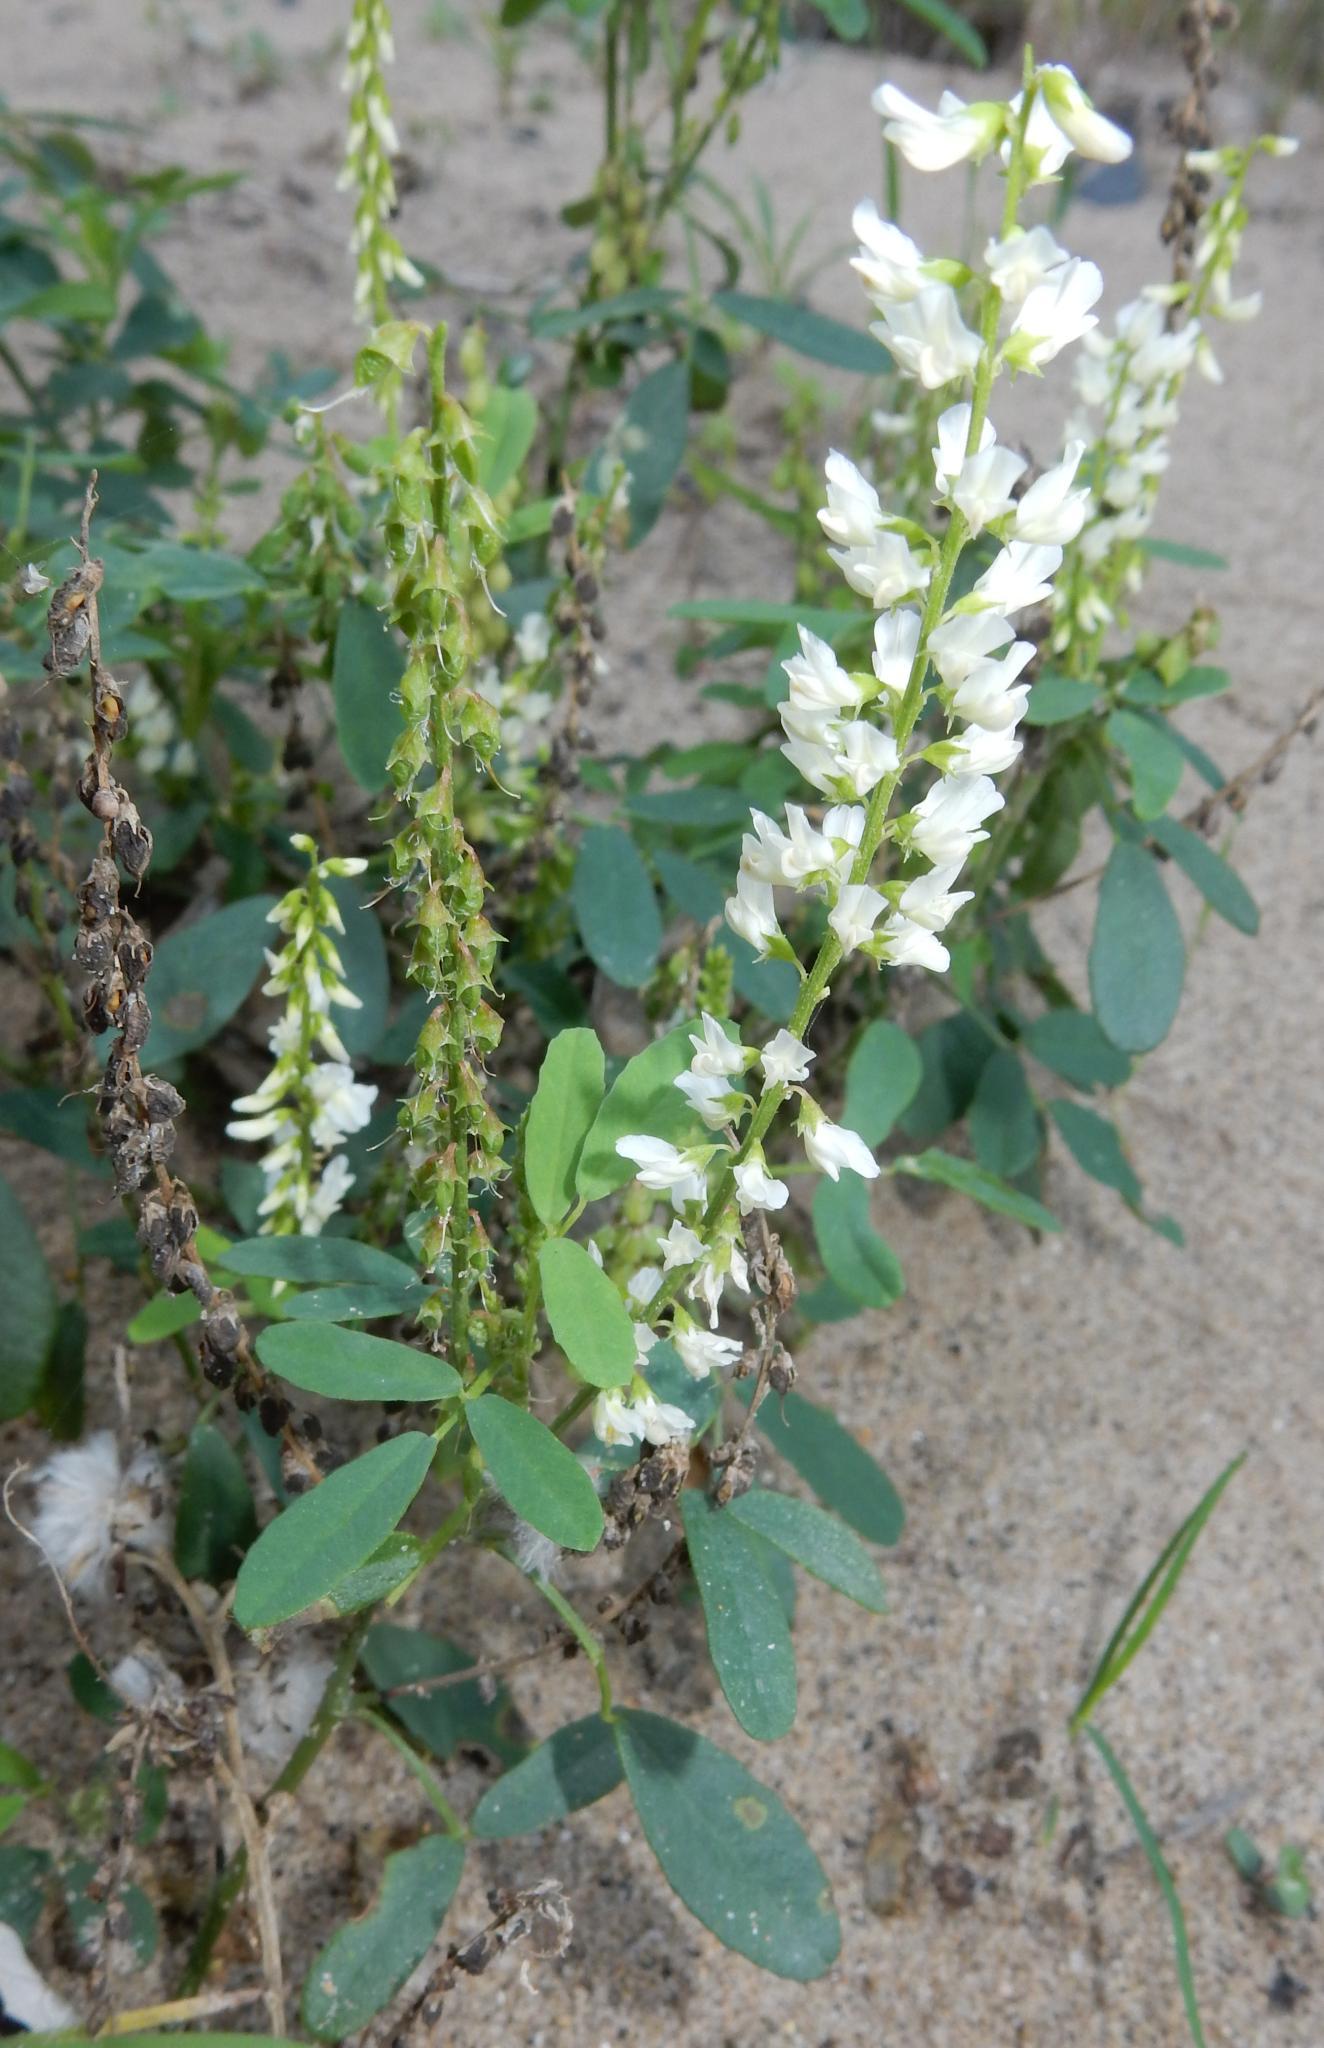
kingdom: Plantae
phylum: Tracheophyta
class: Magnoliopsida
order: Fabales
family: Fabaceae
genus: Melilotus
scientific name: Melilotus albus
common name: White melilot
